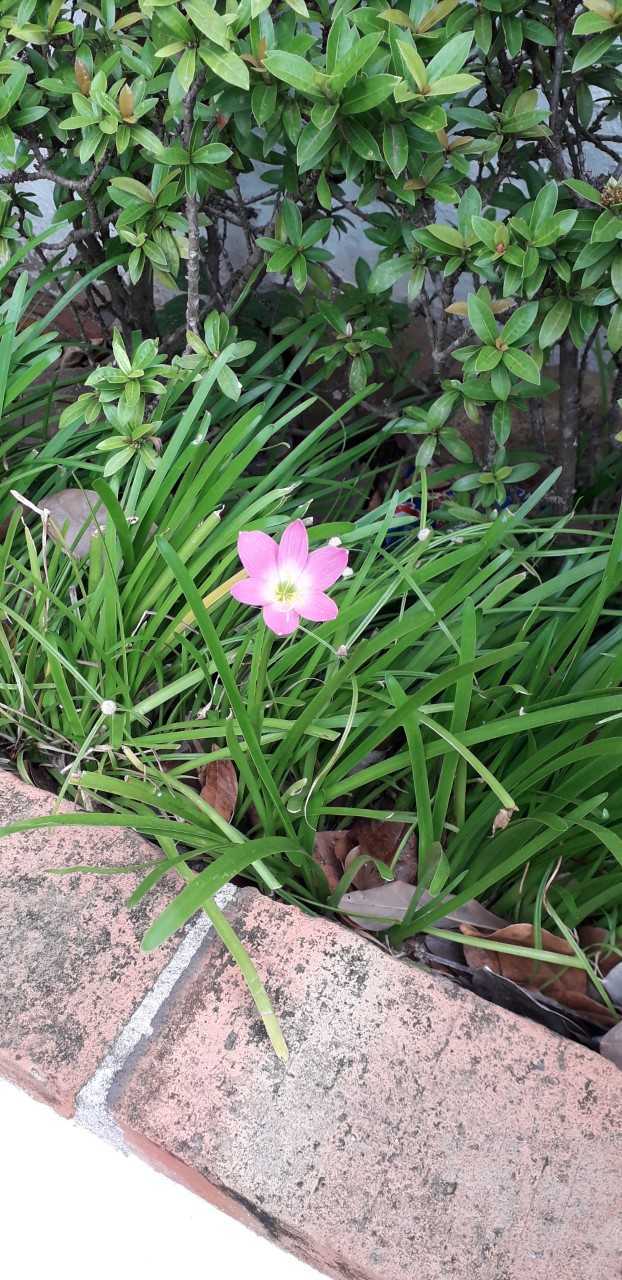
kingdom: Plantae
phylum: Tracheophyta
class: Liliopsida
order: Asparagales
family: Amaryllidaceae
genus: Zephyranthes
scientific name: Zephyranthes carinata
